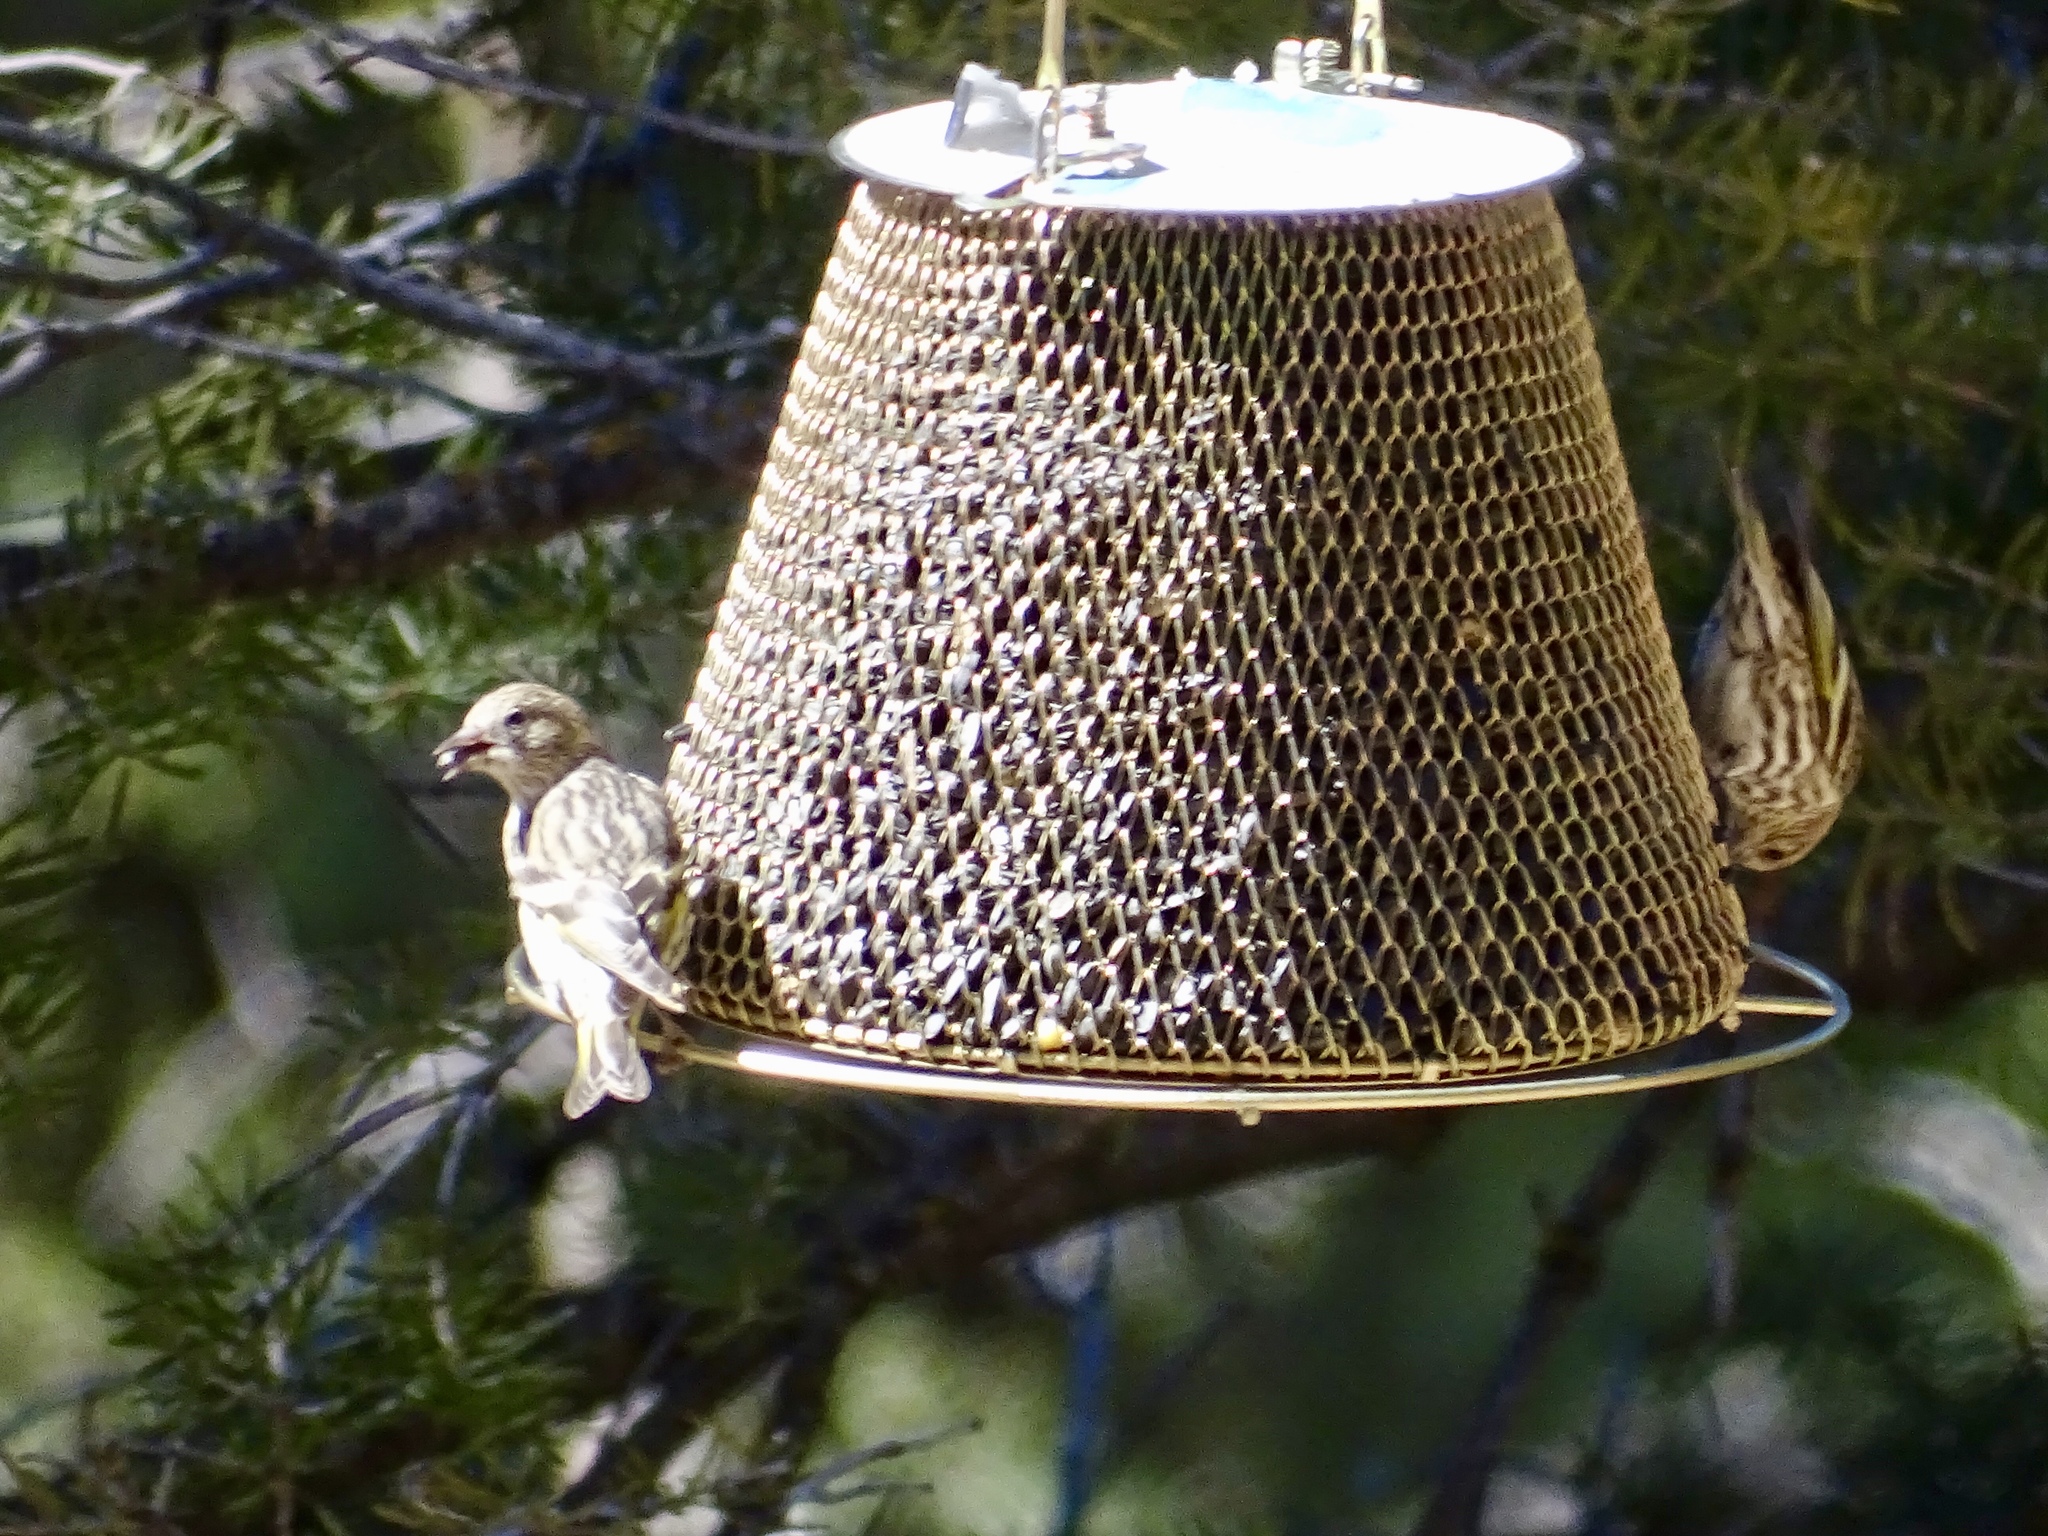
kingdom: Animalia
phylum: Chordata
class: Aves
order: Passeriformes
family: Fringillidae
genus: Spinus
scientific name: Spinus pinus
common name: Pine siskin
